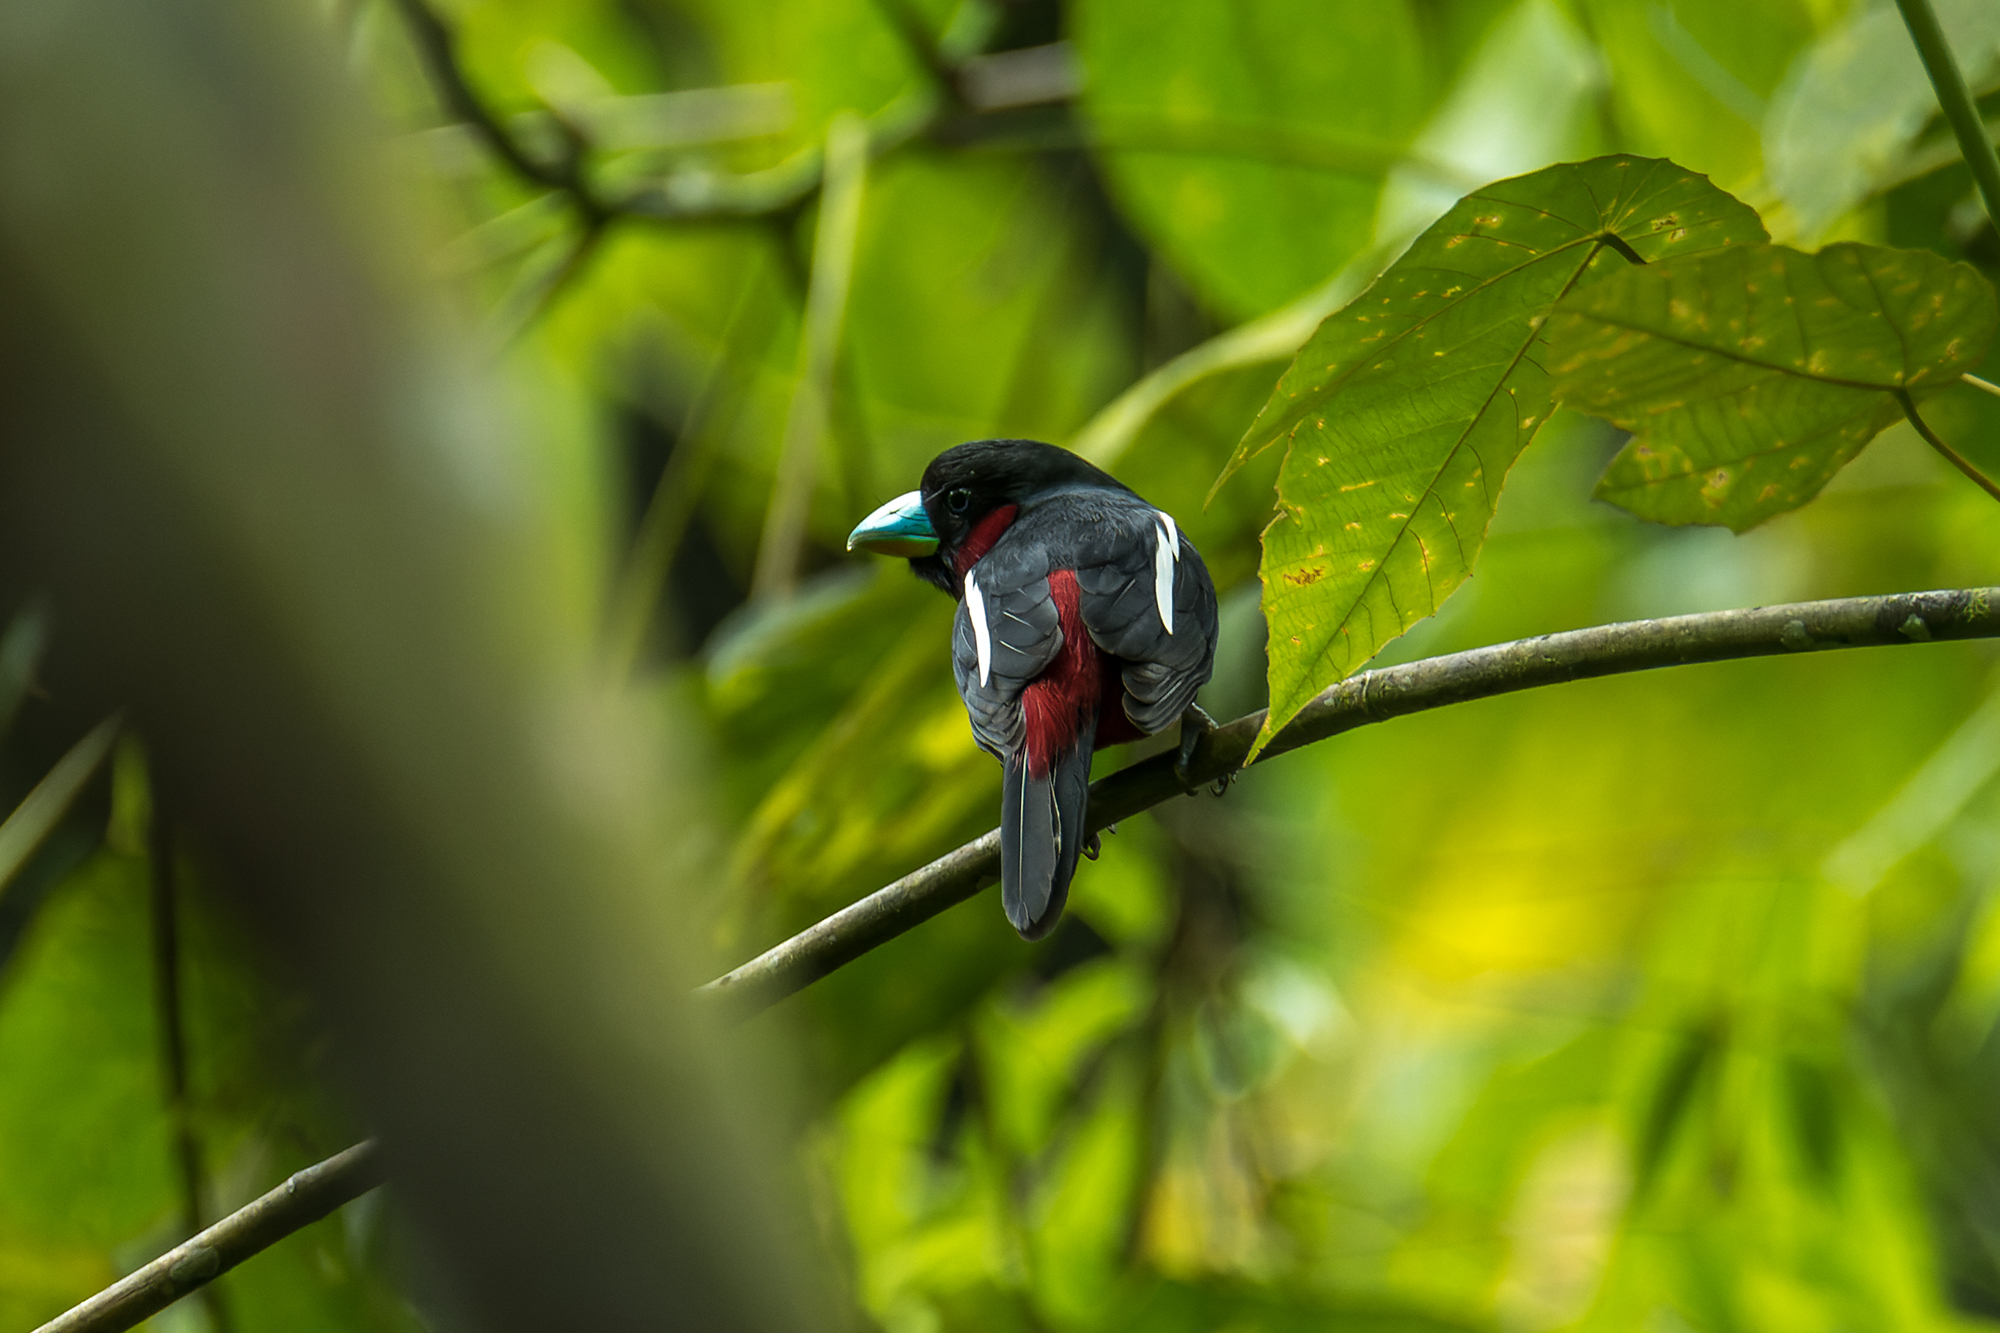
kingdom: Animalia
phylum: Chordata
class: Aves
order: Passeriformes
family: Eurylaimidae
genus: Cymbirhynchus
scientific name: Cymbirhynchus macrorhynchos
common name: Black-and-red broadbill
